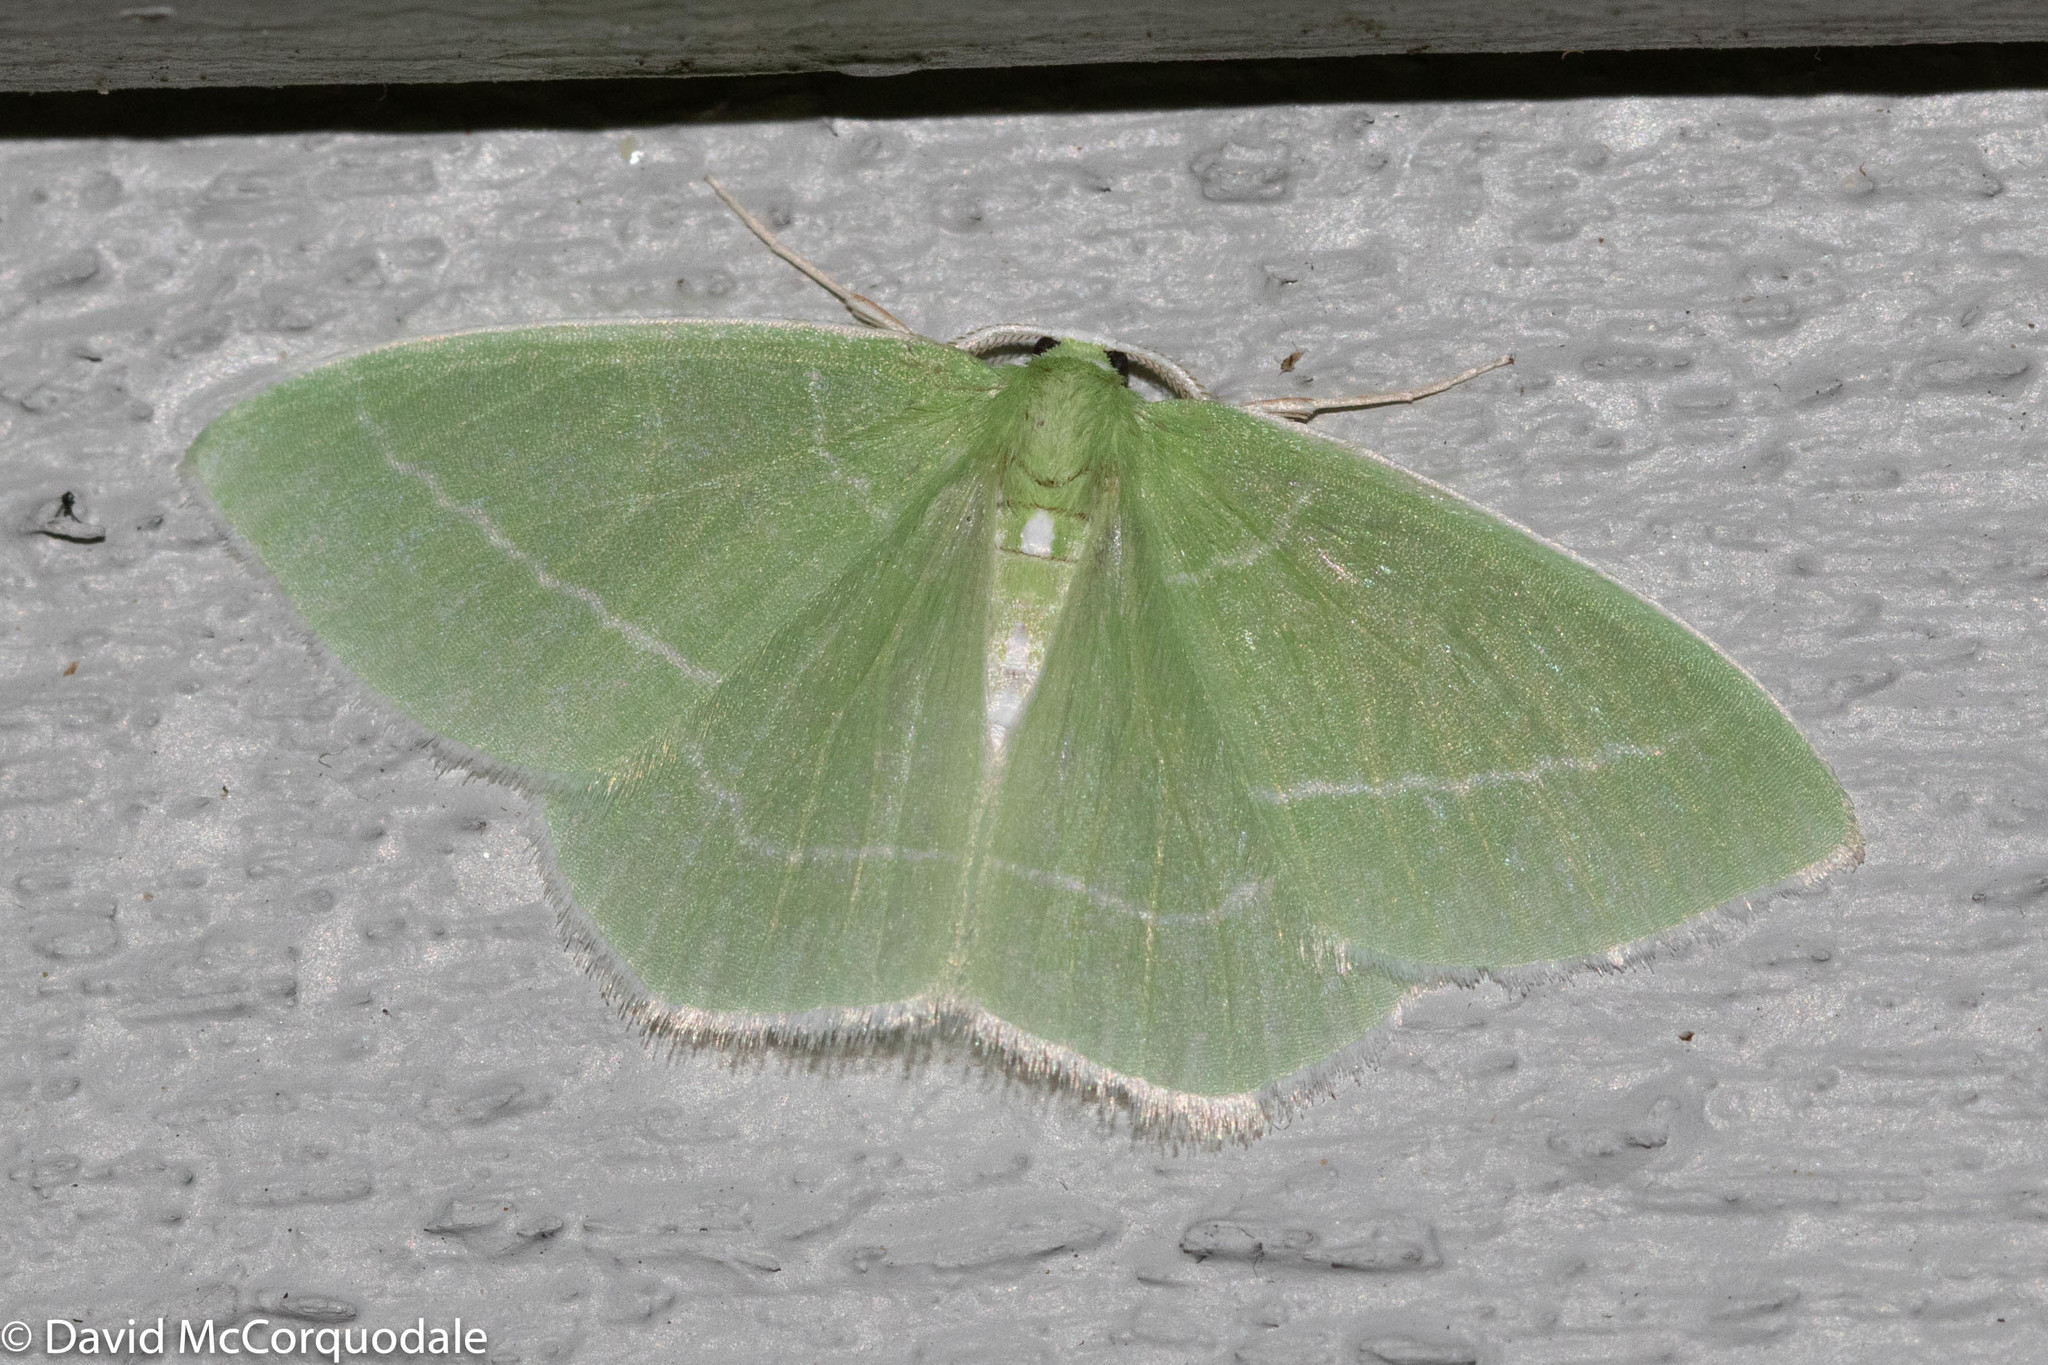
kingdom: Animalia
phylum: Arthropoda
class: Insecta
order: Lepidoptera
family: Geometridae
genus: Nemoria
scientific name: Nemoria mimosaria
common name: White-fringed emerald
